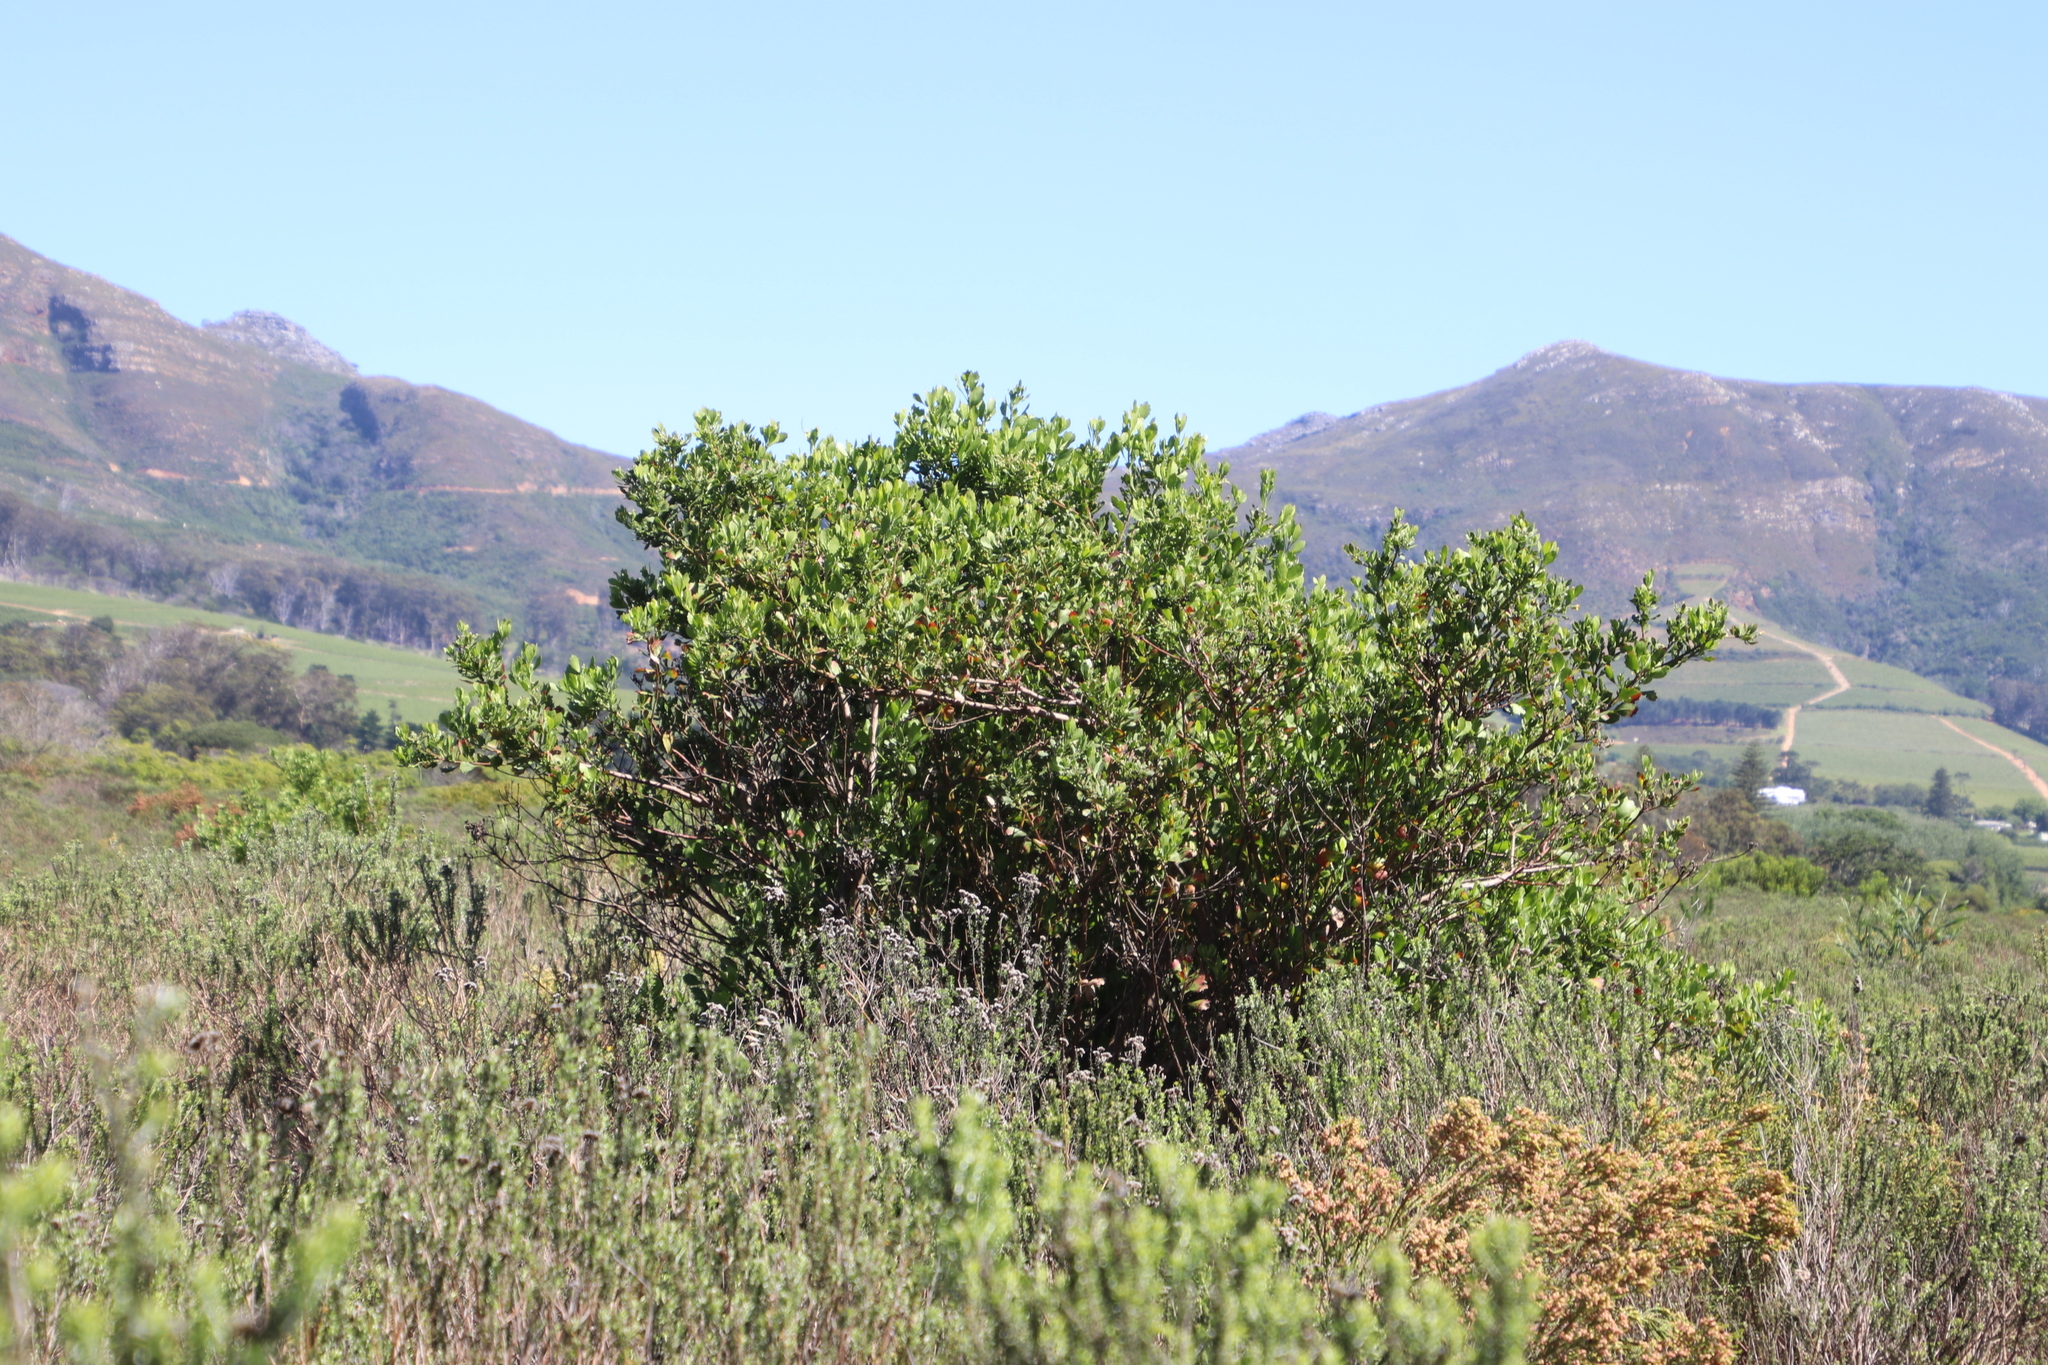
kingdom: Plantae
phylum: Tracheophyta
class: Magnoliopsida
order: Asterales
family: Asteraceae
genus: Osteospermum
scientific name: Osteospermum moniliferum
